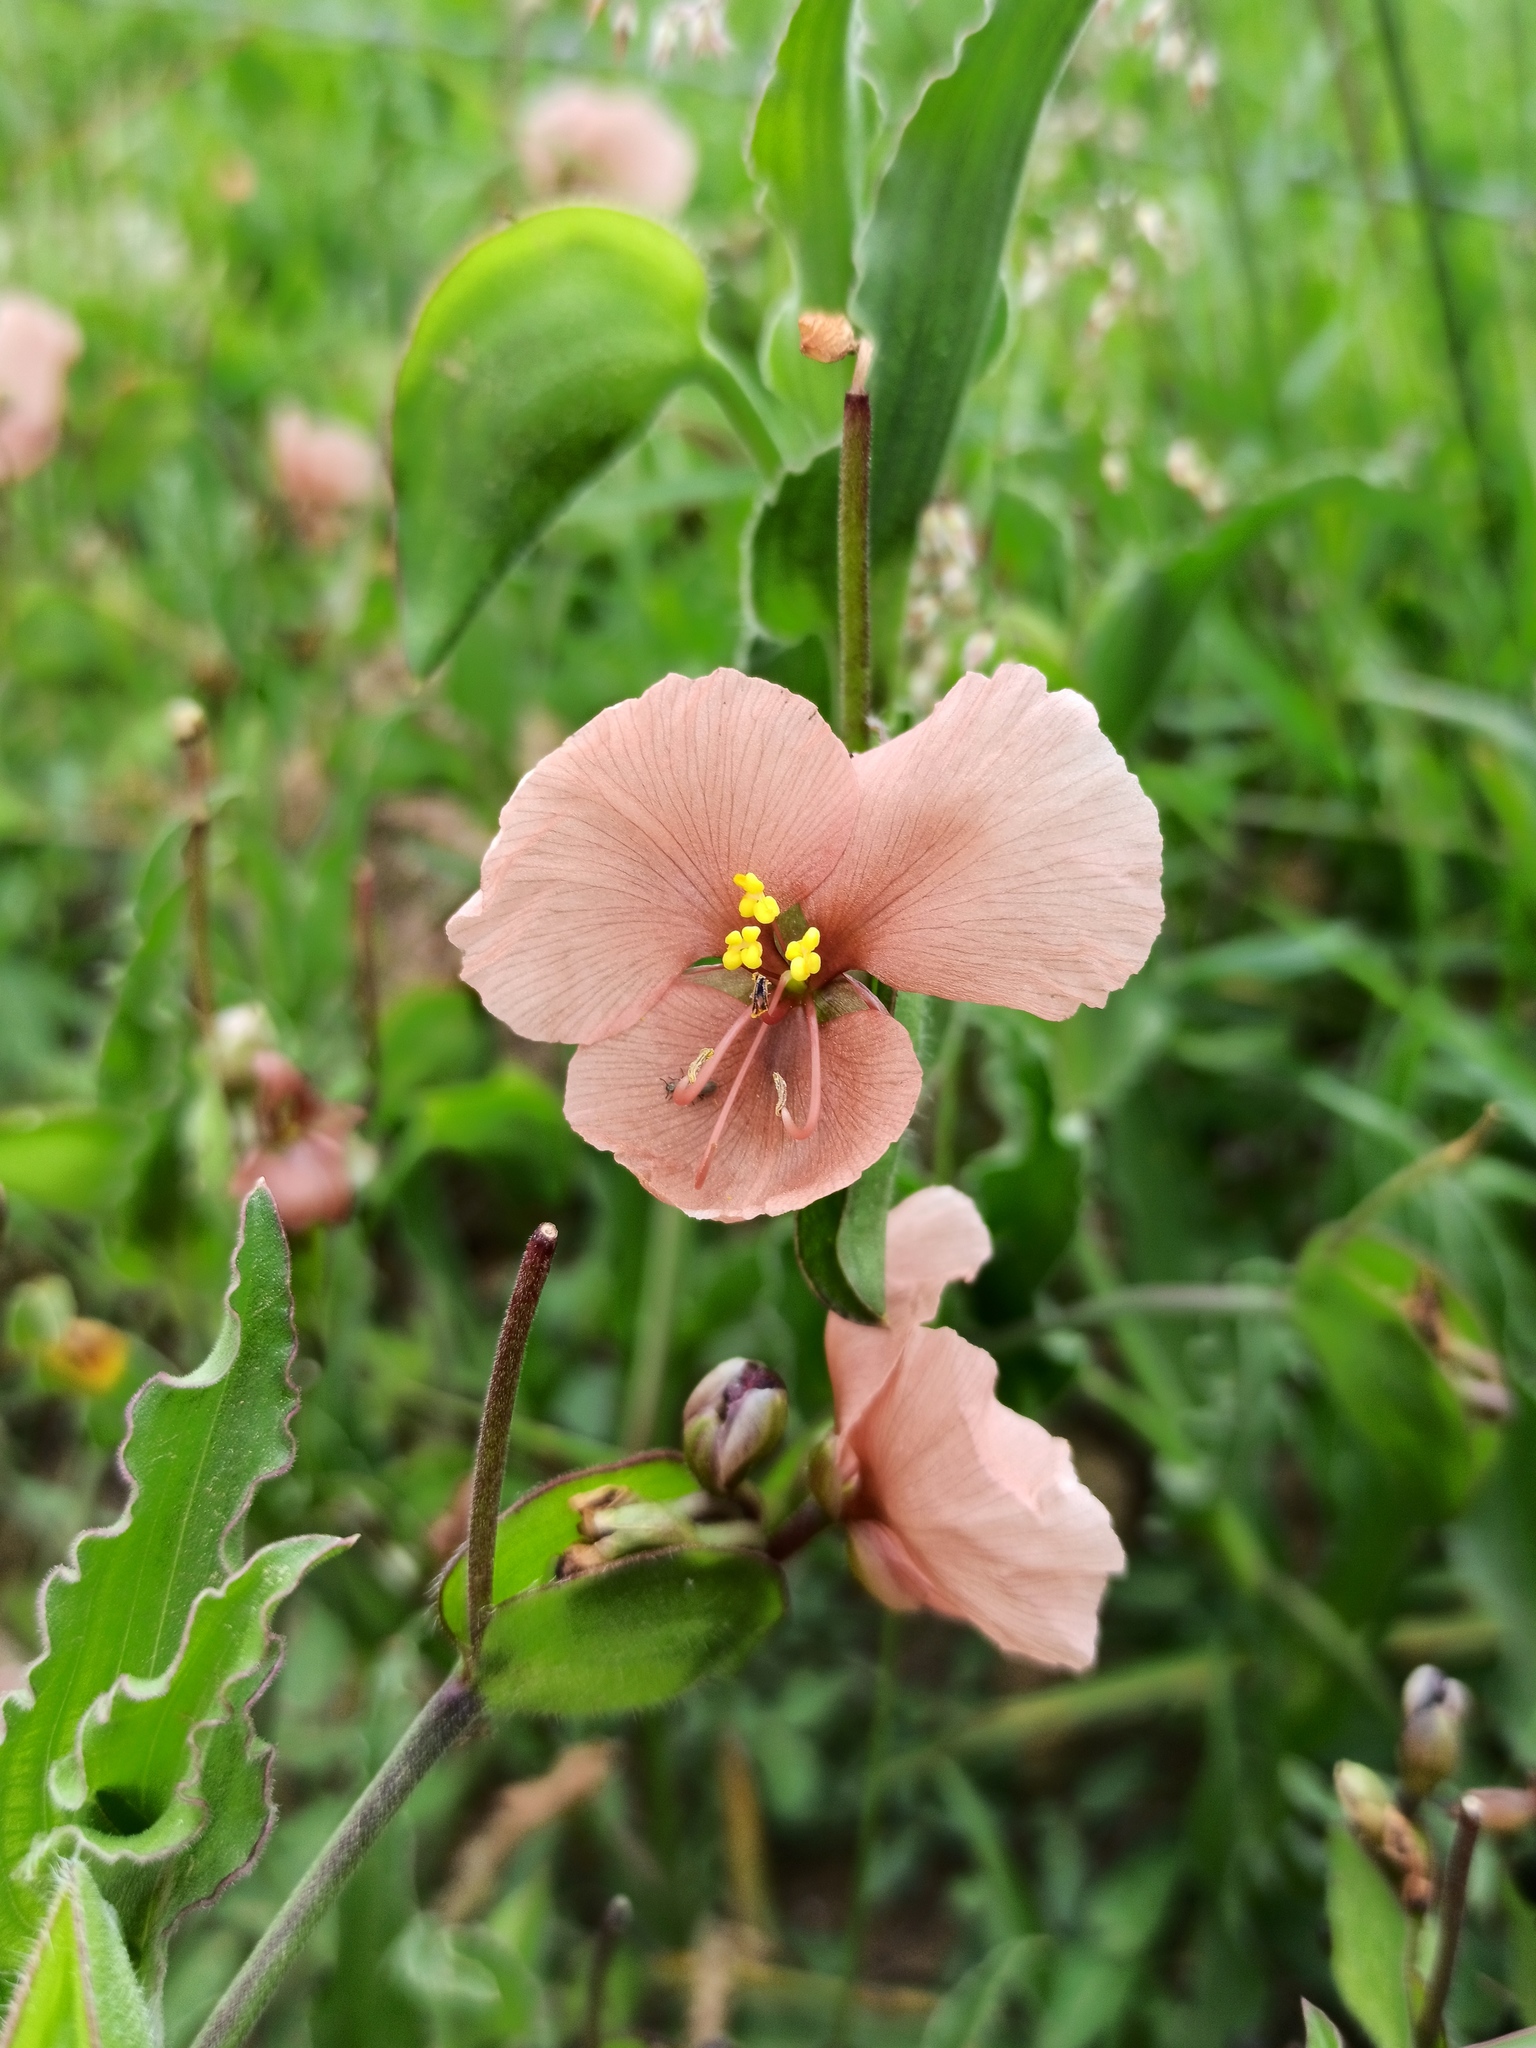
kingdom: Plantae
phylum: Tracheophyta
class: Liliopsida
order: Commelinales
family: Commelinaceae
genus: Commelina
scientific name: Commelina scabra
